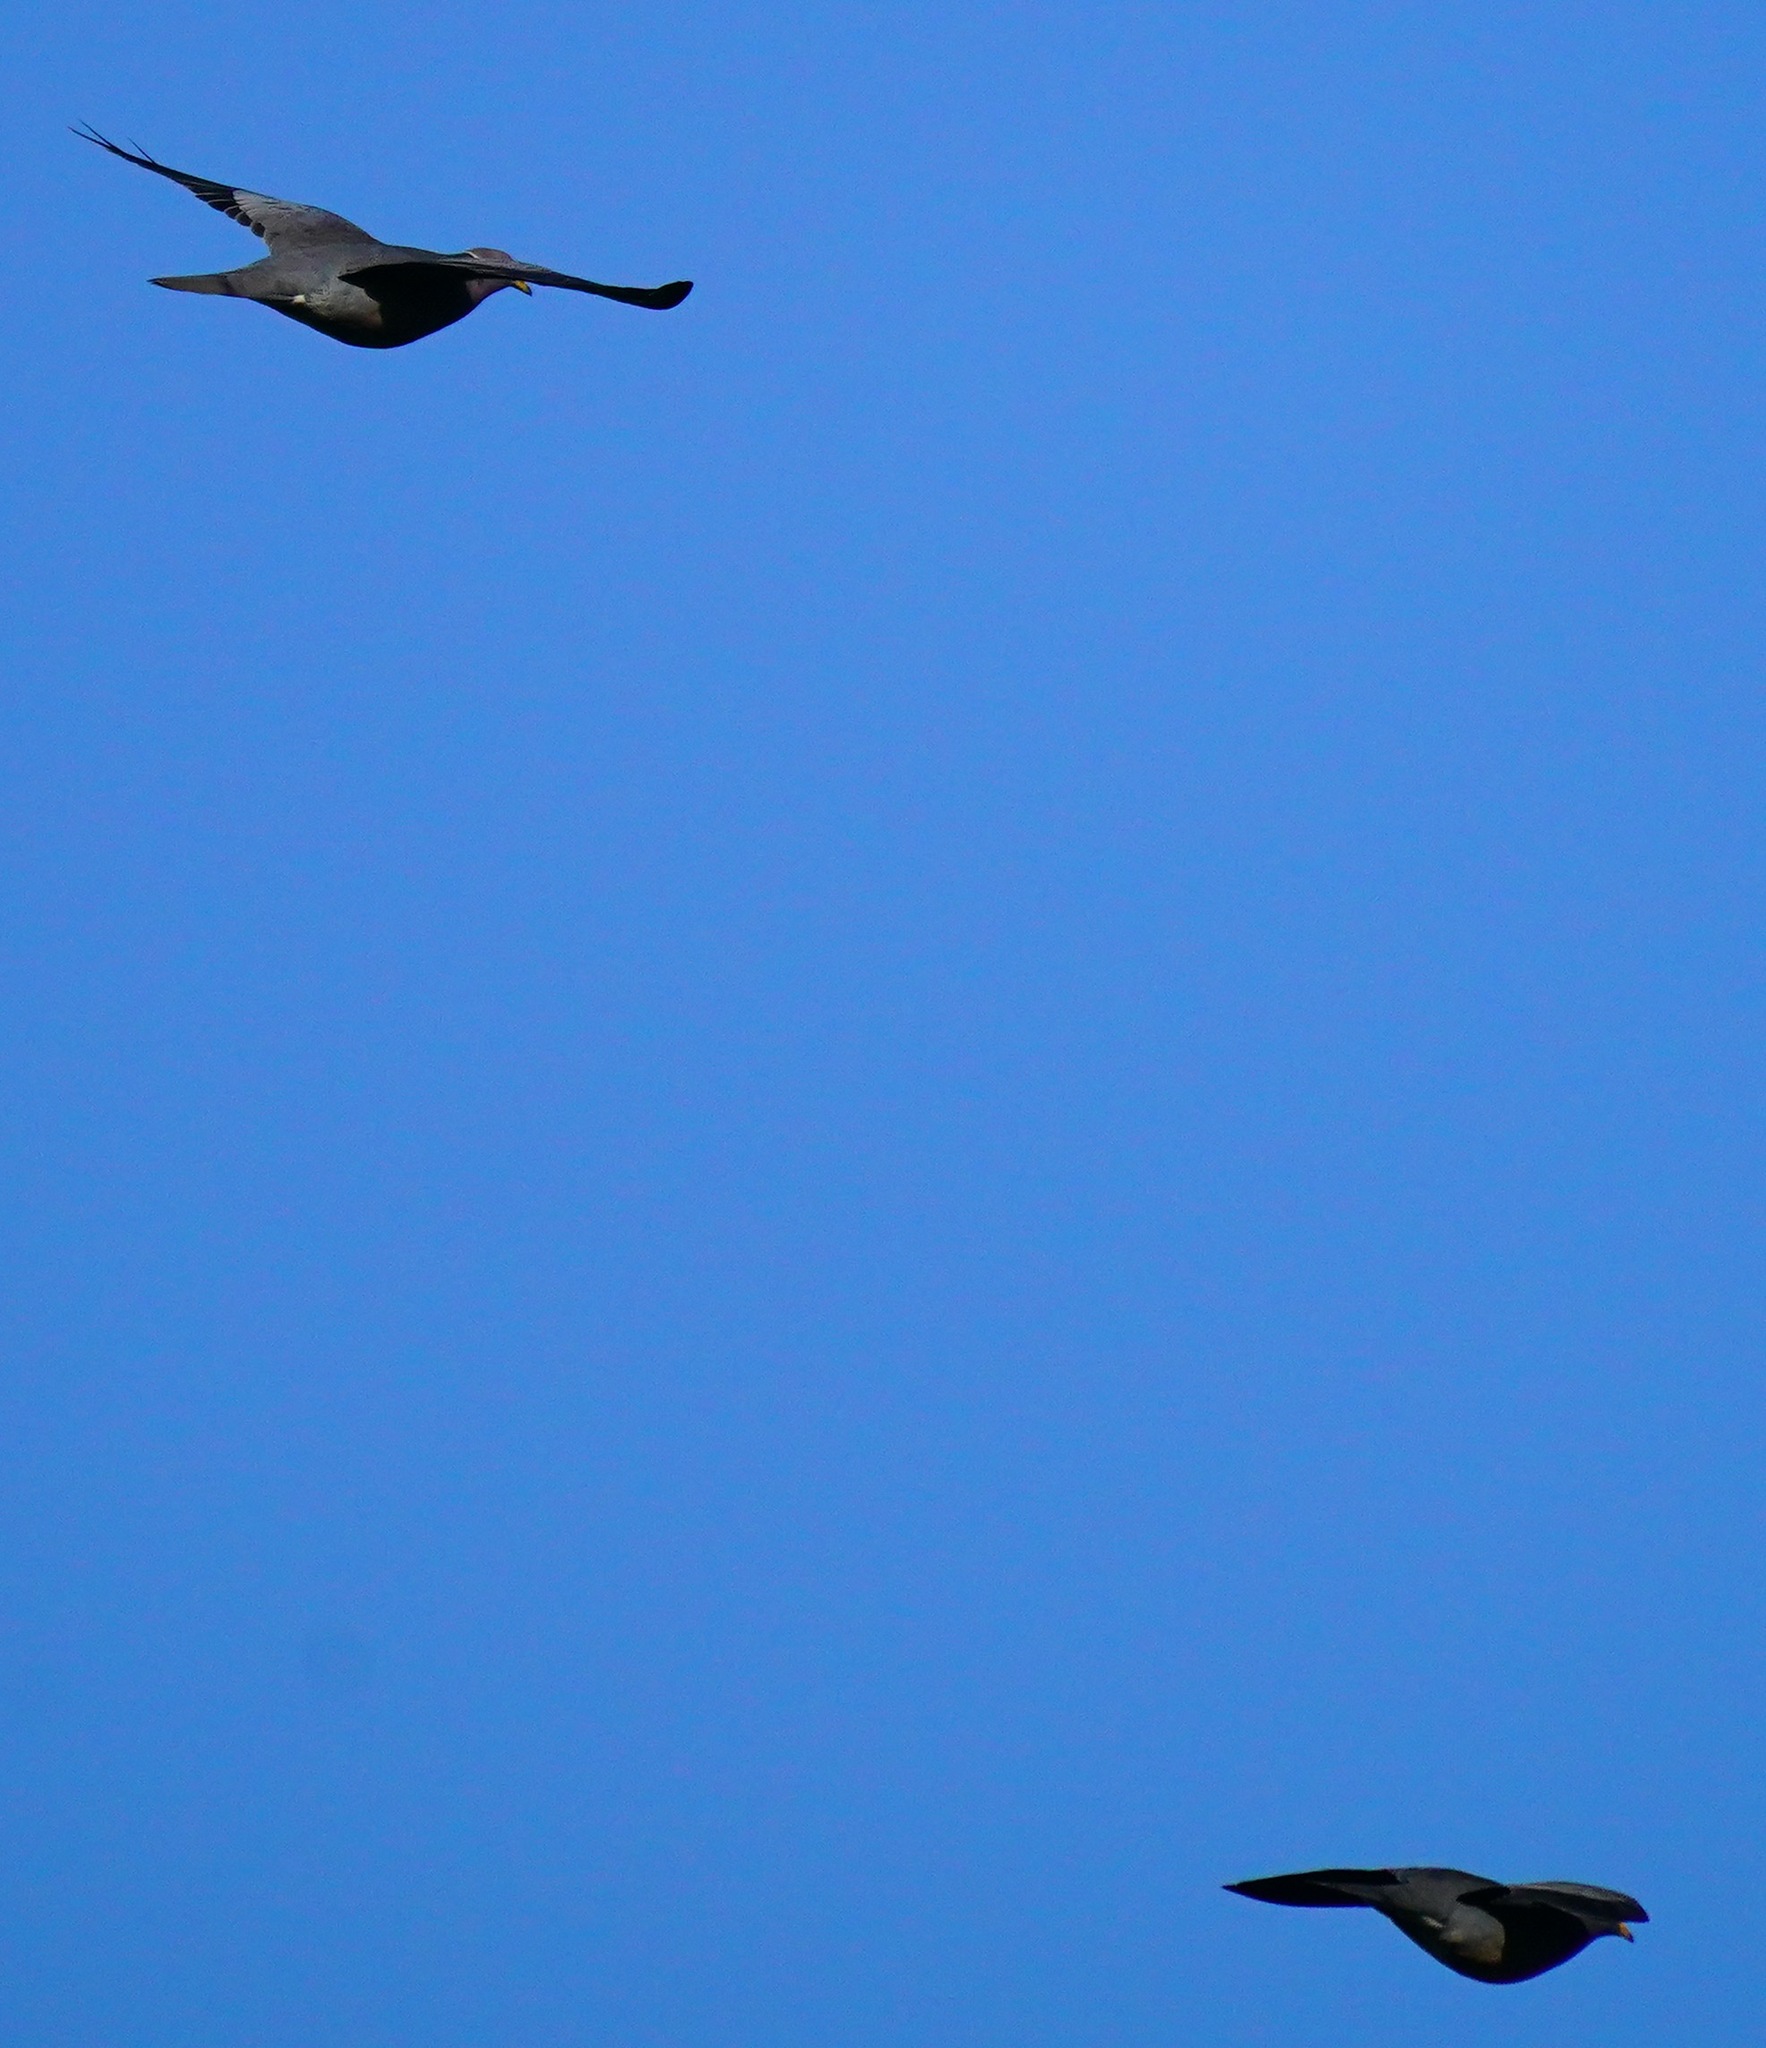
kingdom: Animalia
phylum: Chordata
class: Aves
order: Columbiformes
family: Columbidae
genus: Patagioenas
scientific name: Patagioenas fasciata
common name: Band-tailed pigeon
